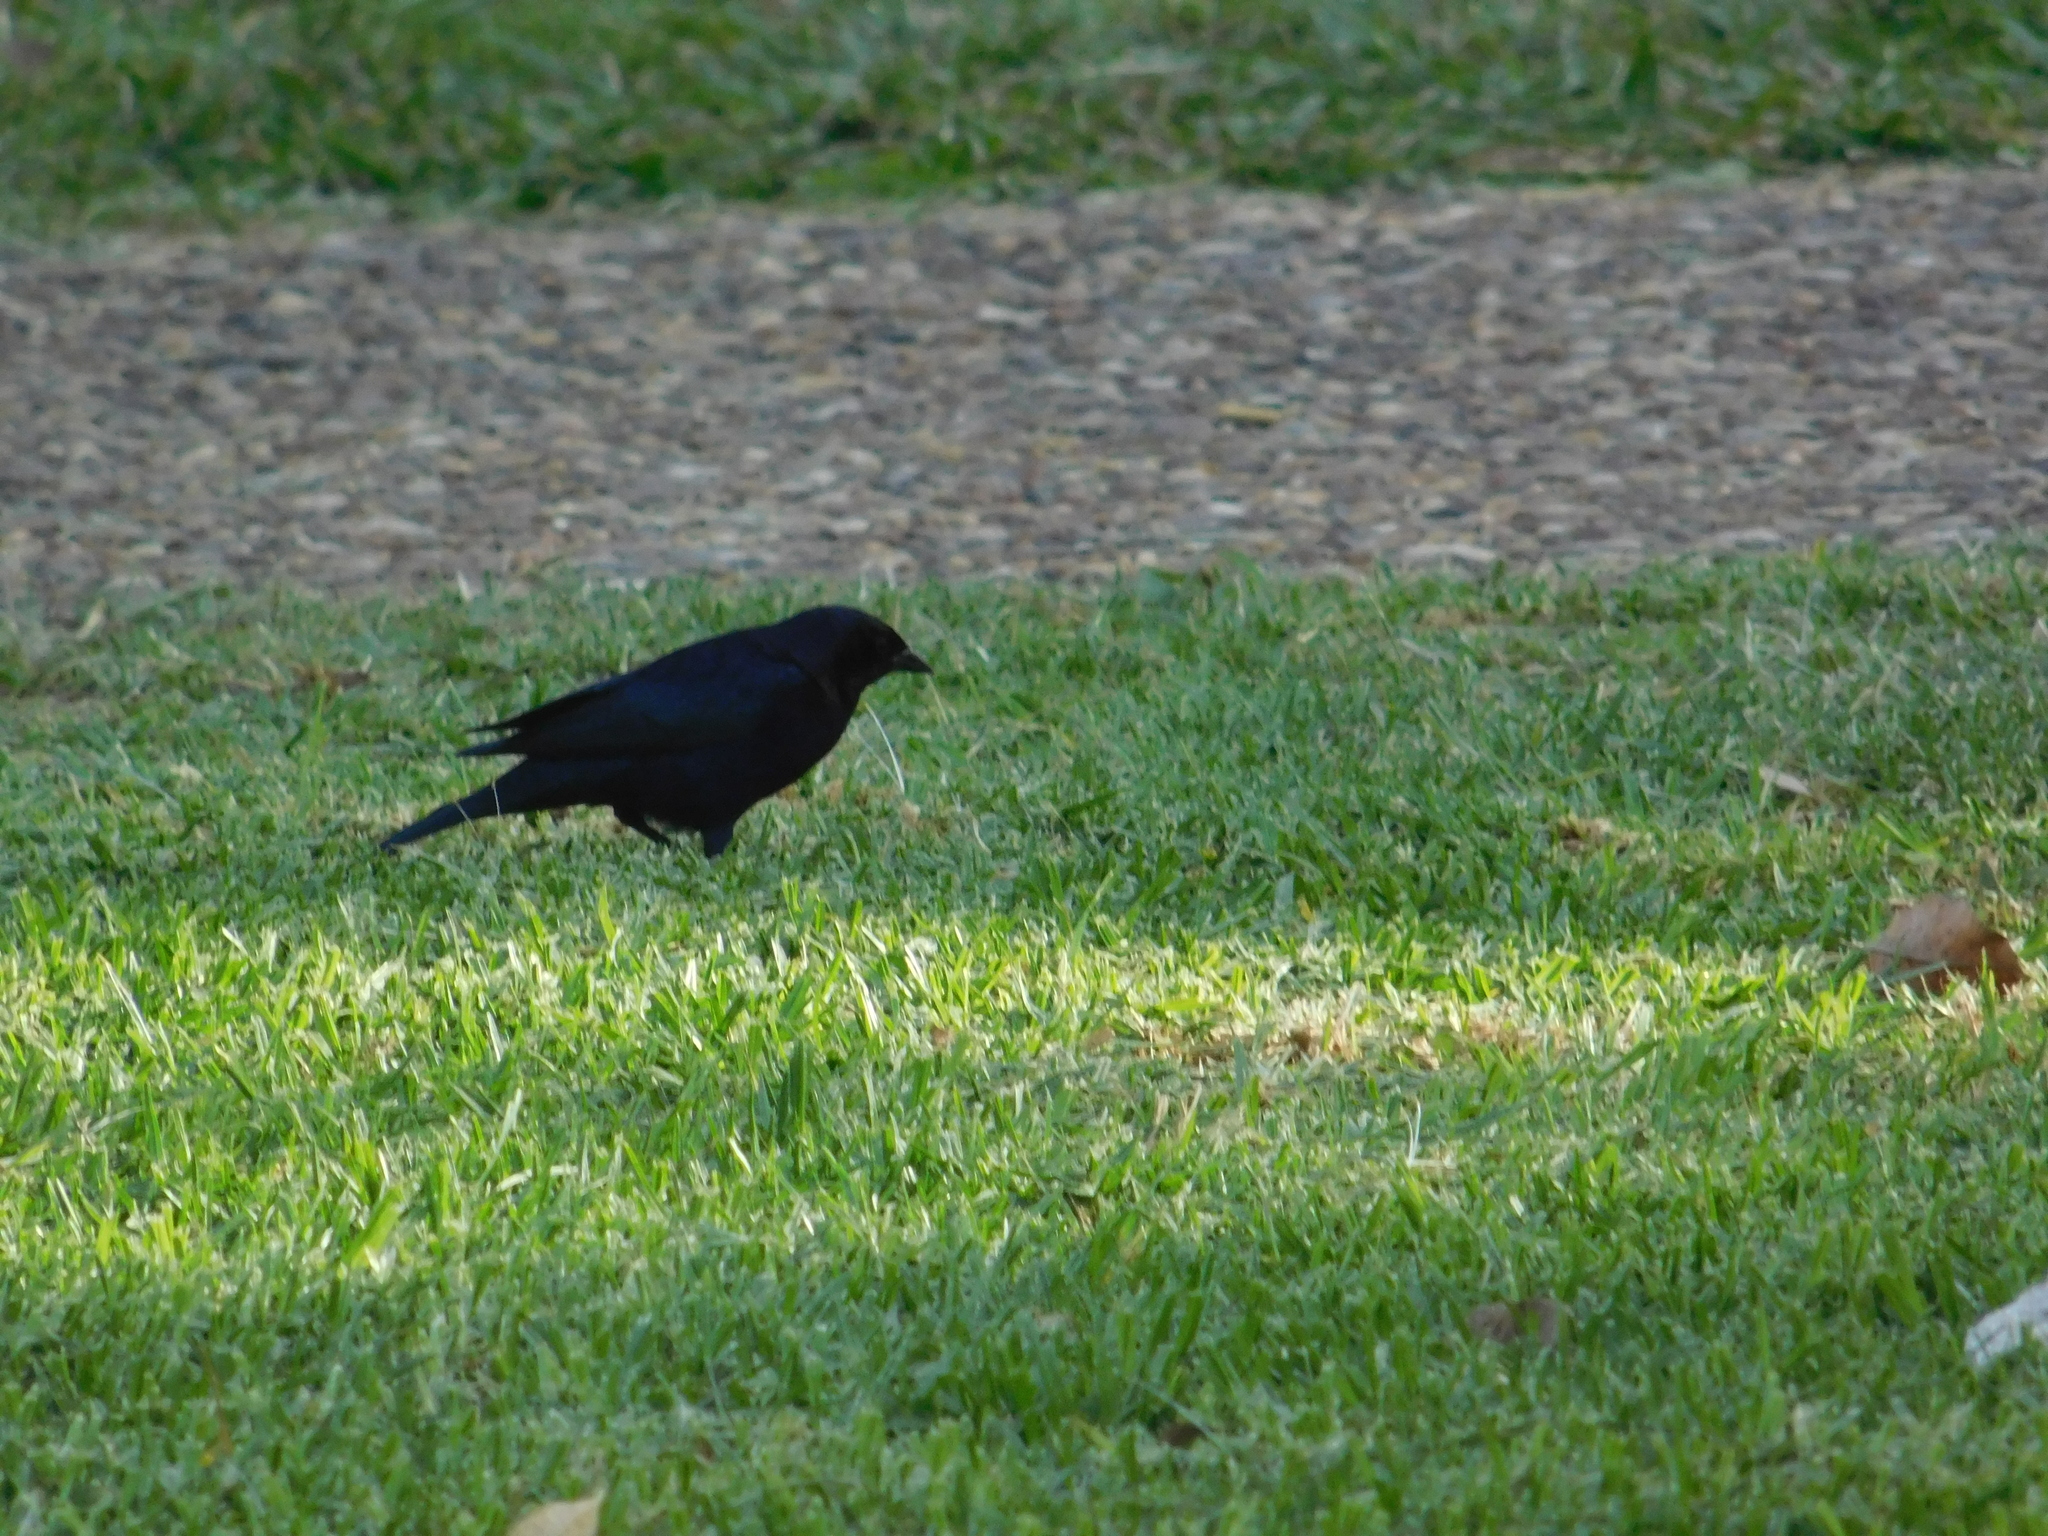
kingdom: Animalia
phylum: Chordata
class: Aves
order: Passeriformes
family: Icteridae
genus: Molothrus
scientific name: Molothrus bonariensis
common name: Shiny cowbird
